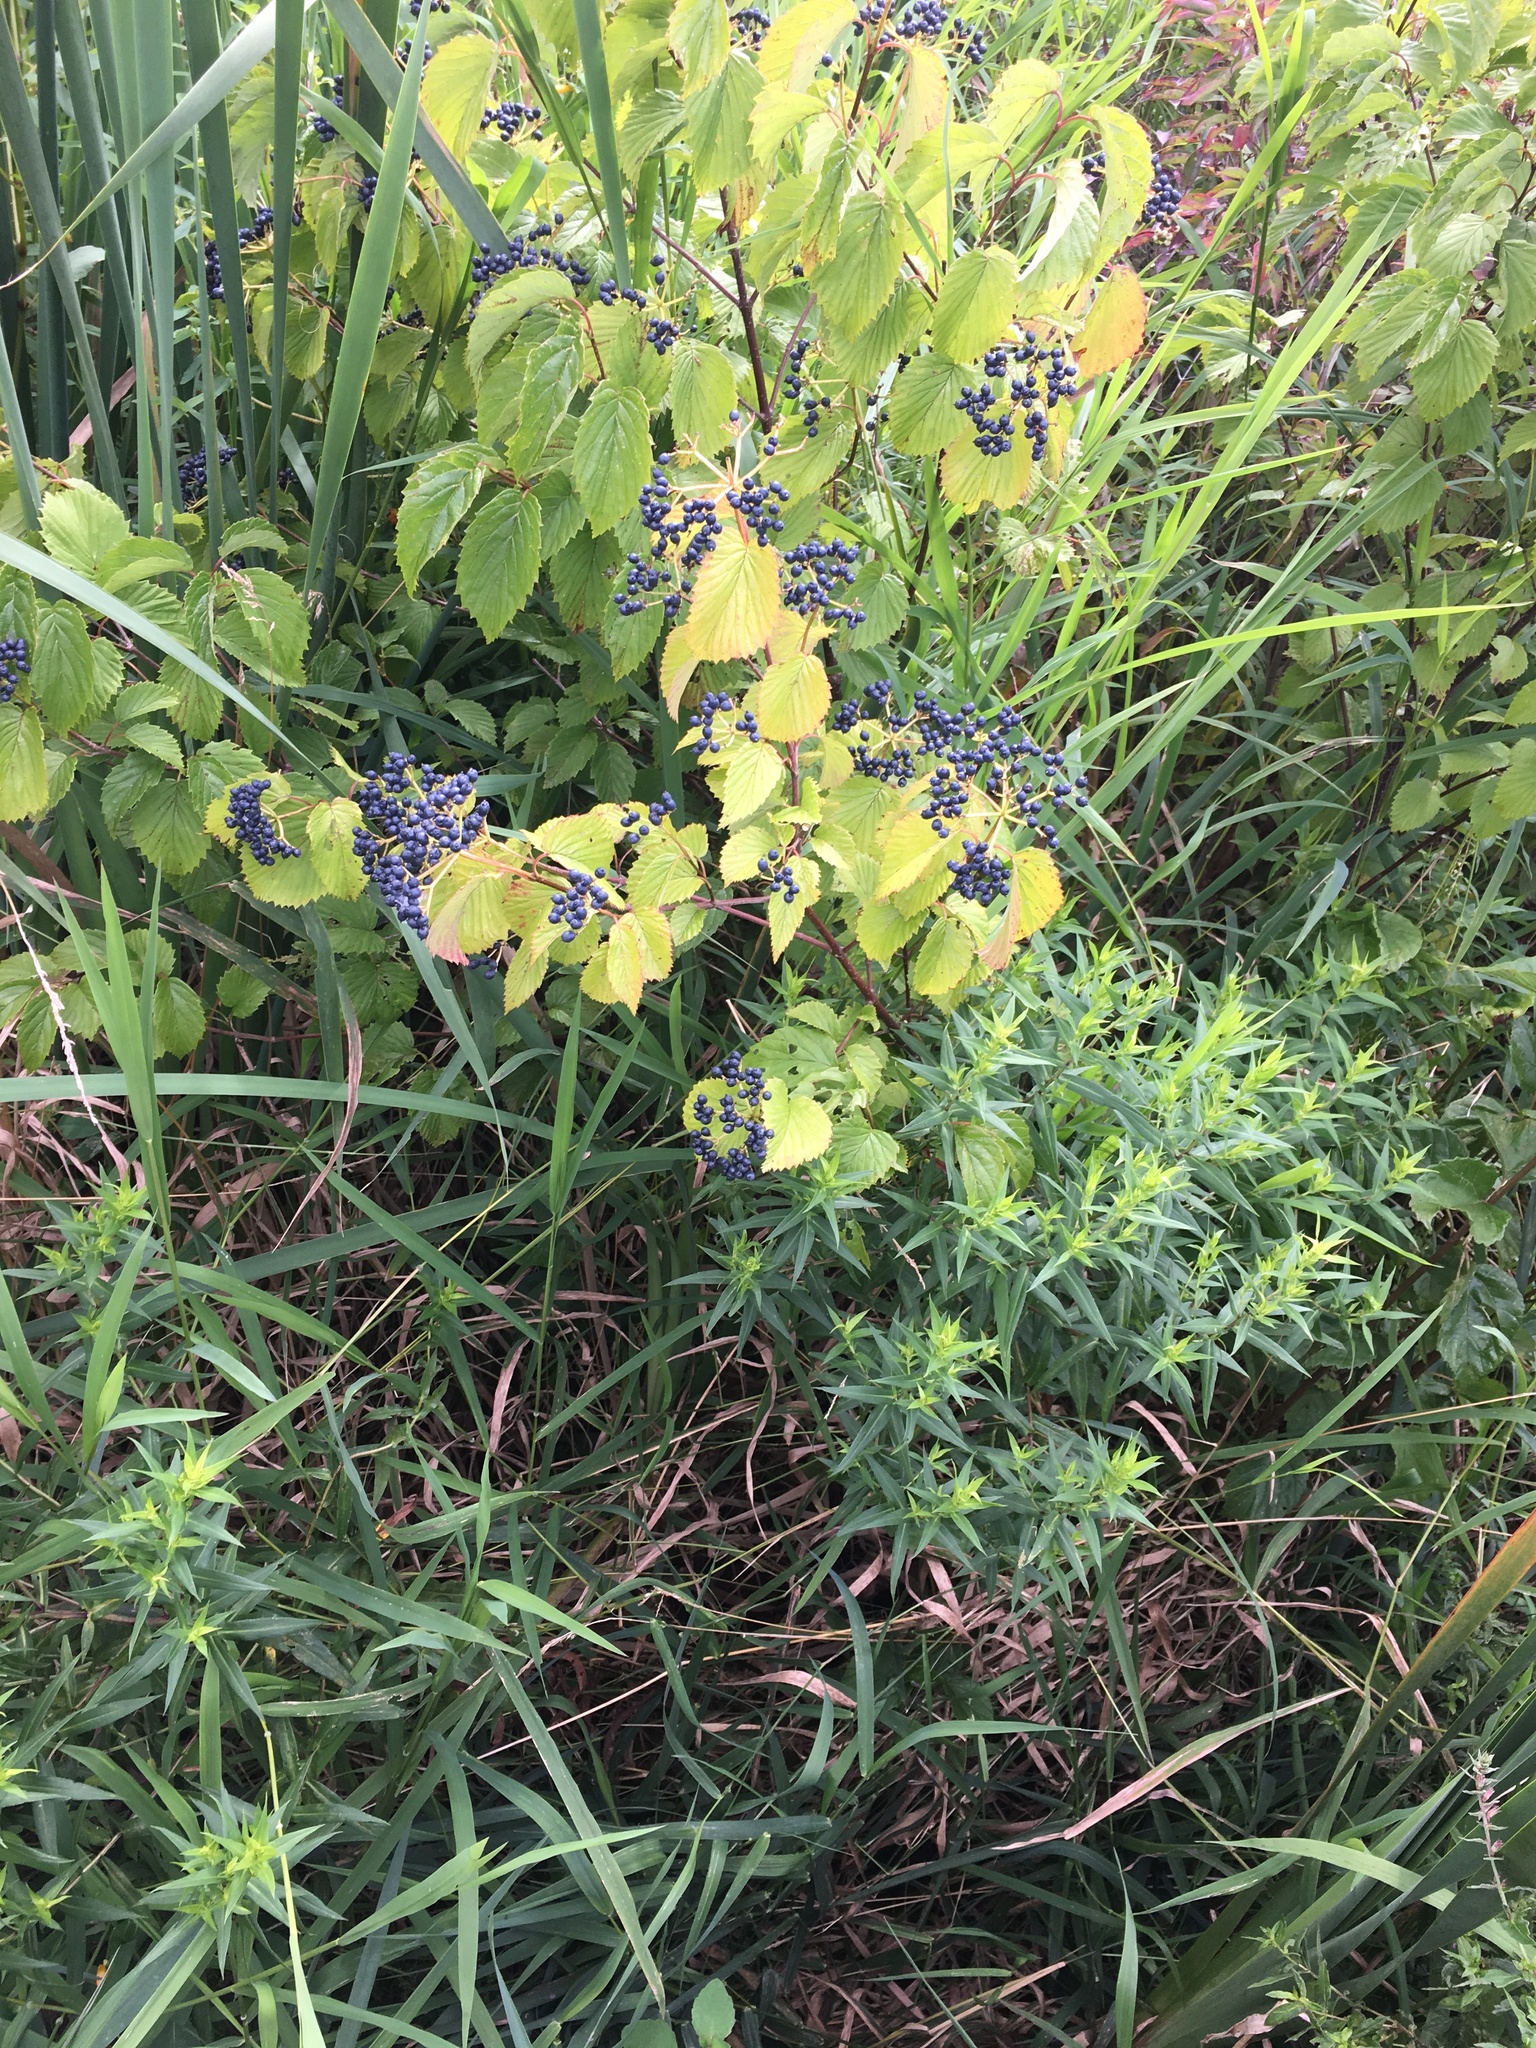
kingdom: Plantae
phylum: Tracheophyta
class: Magnoliopsida
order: Dipsacales
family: Viburnaceae
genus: Viburnum
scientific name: Viburnum recognitum
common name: Northern arrow-wood
